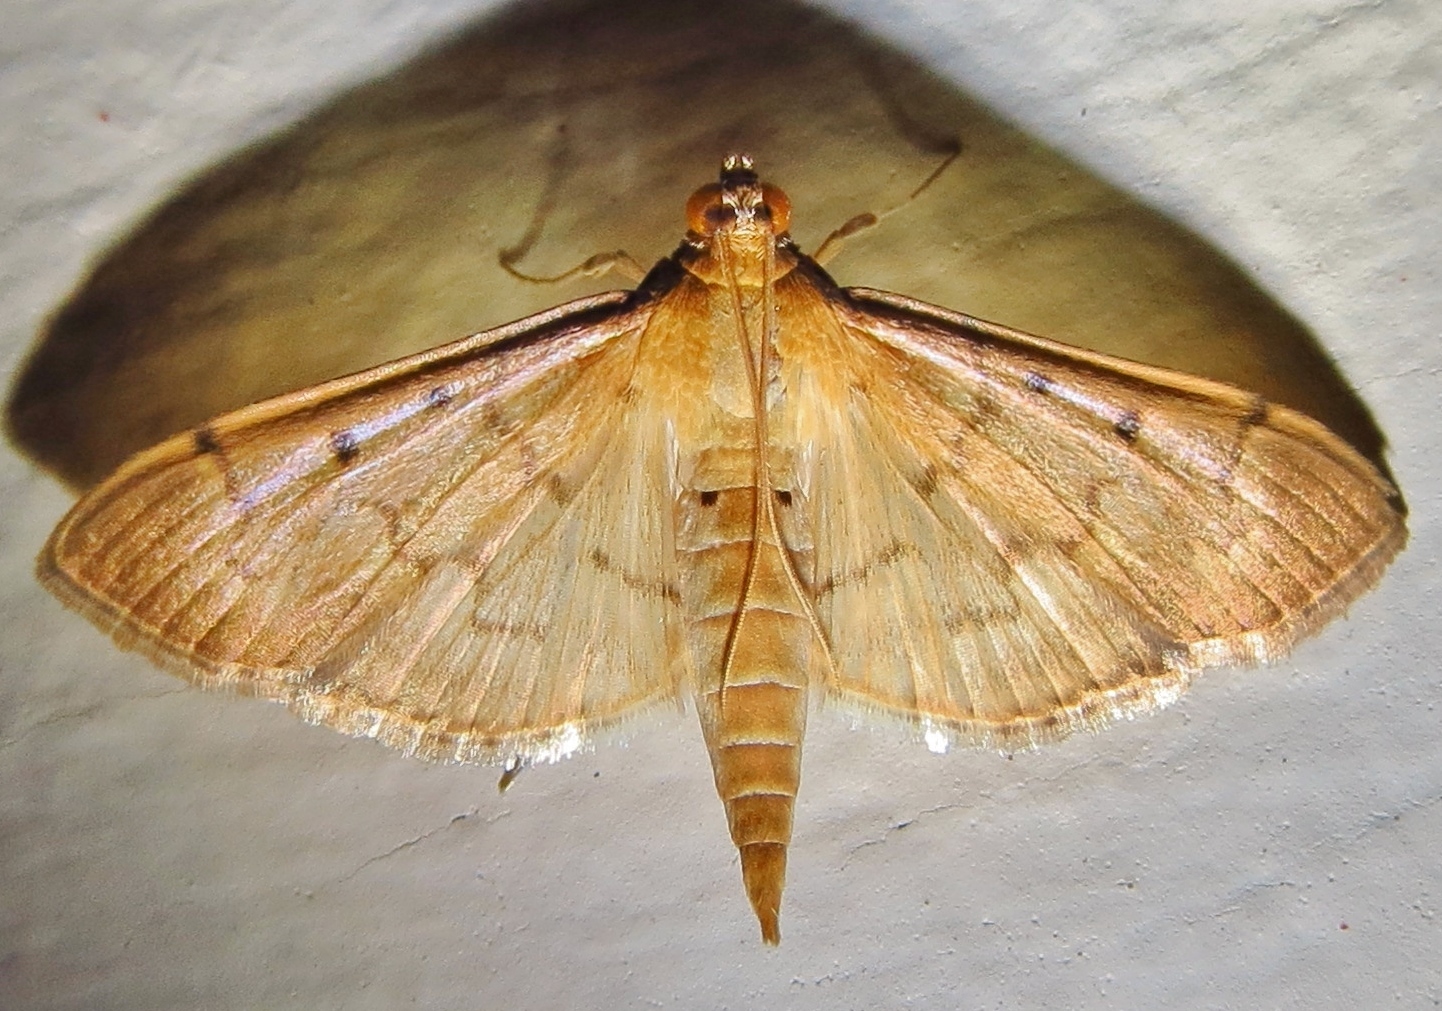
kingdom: Animalia
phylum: Arthropoda
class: Insecta
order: Lepidoptera
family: Crambidae
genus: Herpetogramma
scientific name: Herpetogramma bipunctalis
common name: Southern beet webworm
